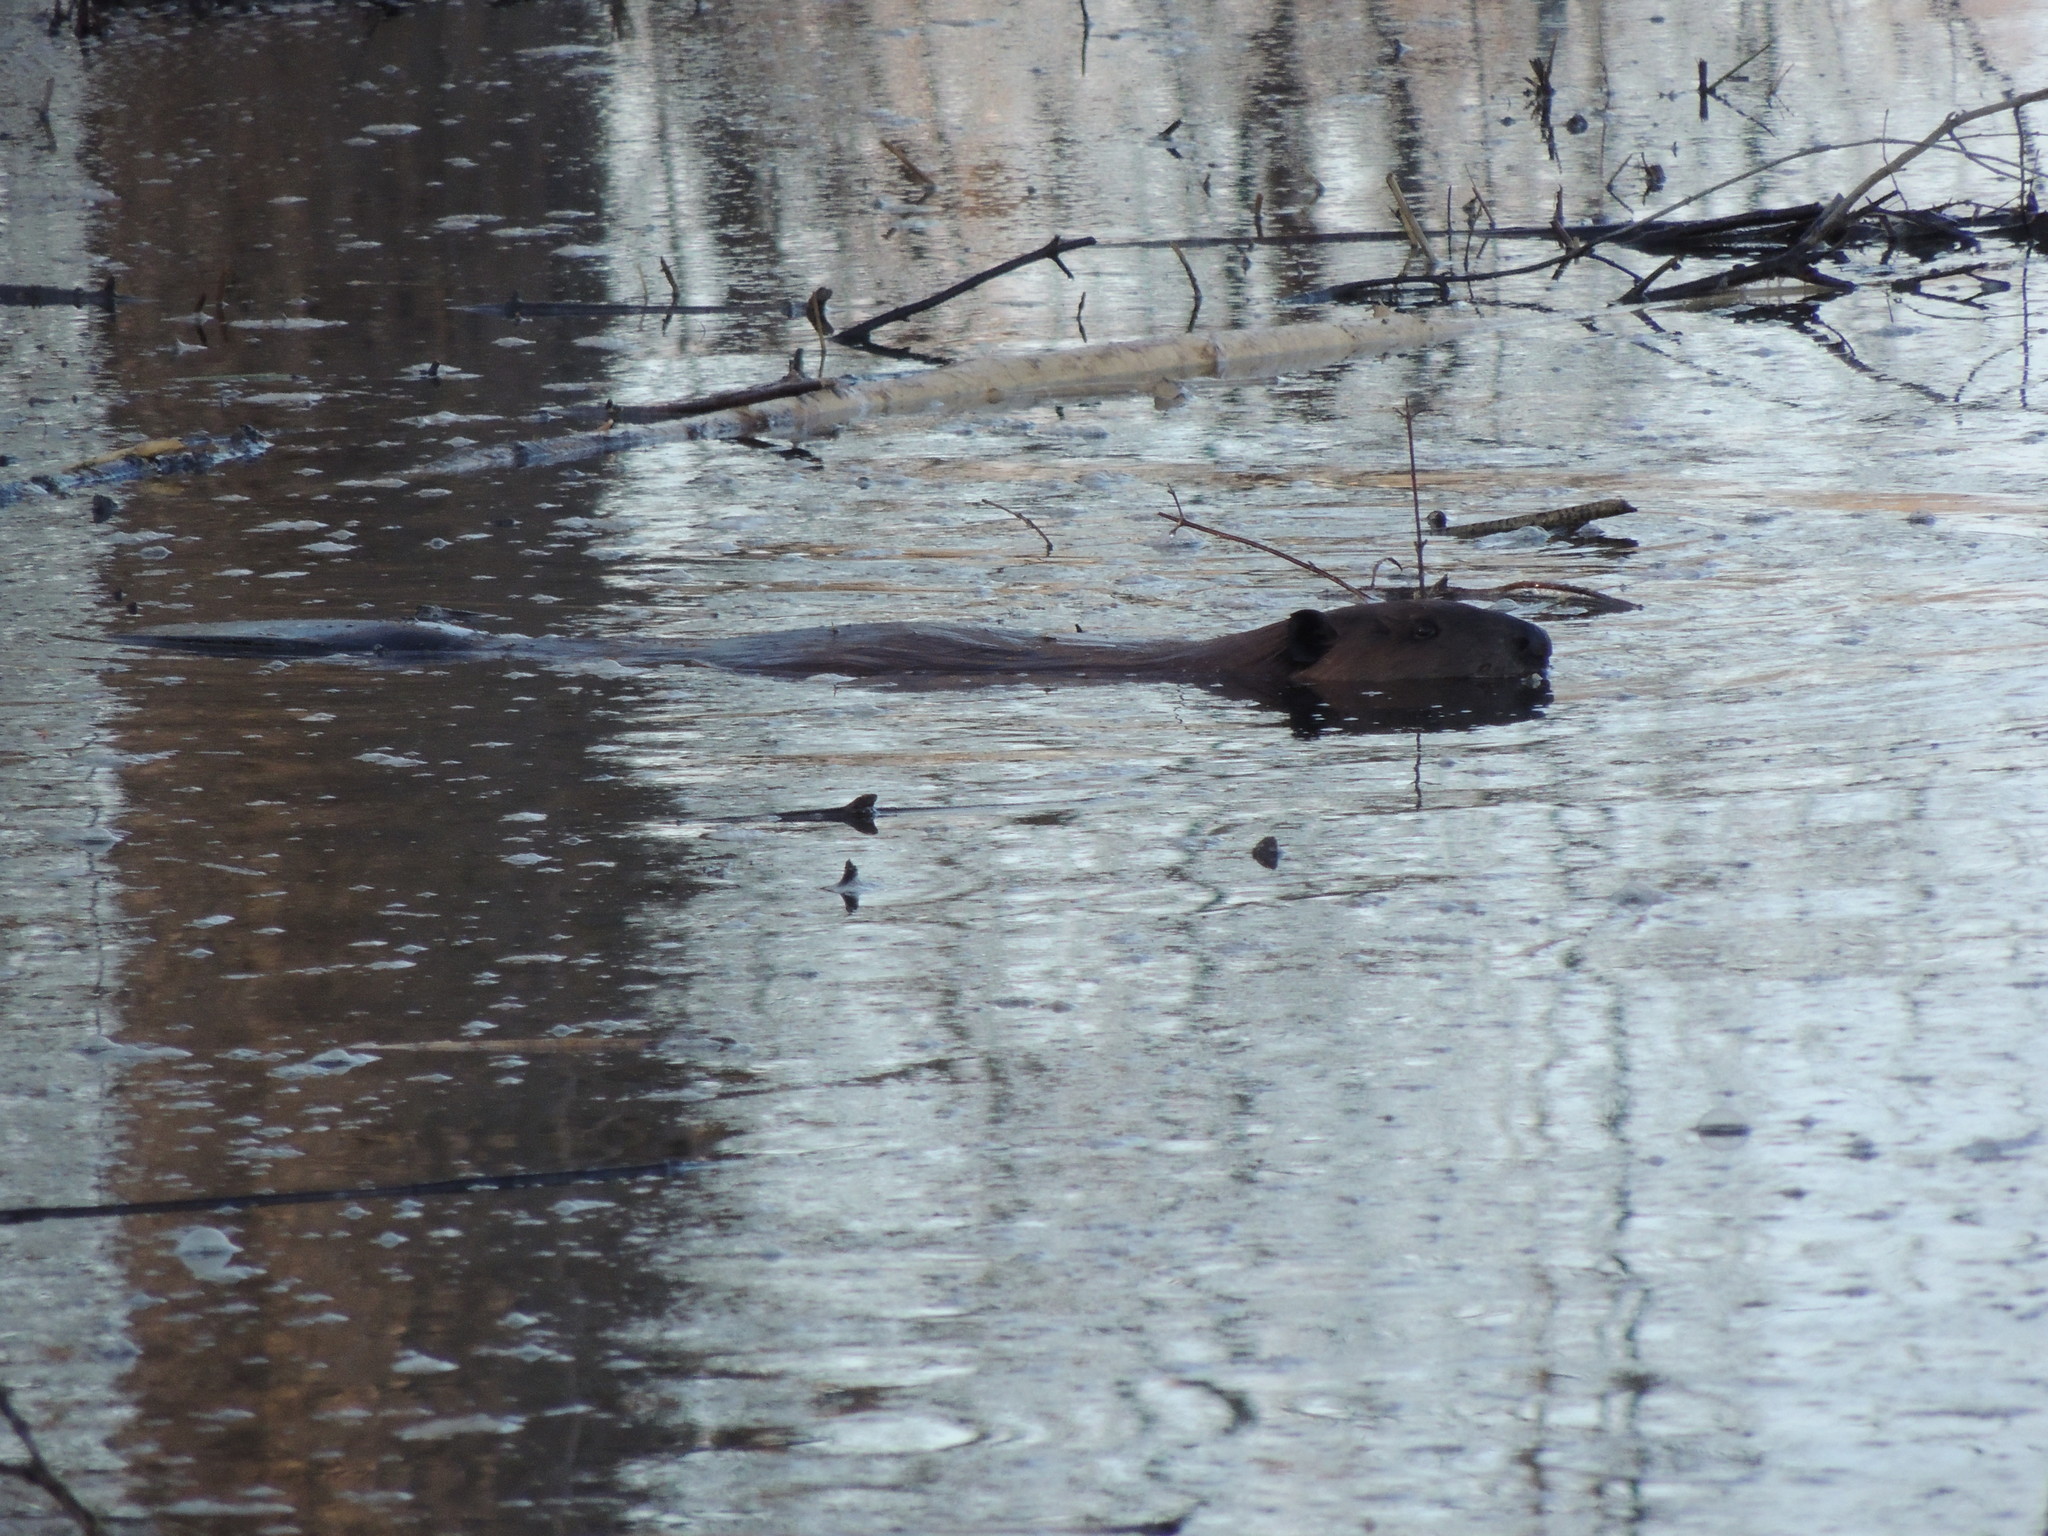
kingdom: Animalia
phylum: Chordata
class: Mammalia
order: Rodentia
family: Castoridae
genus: Castor
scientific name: Castor canadensis
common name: American beaver
